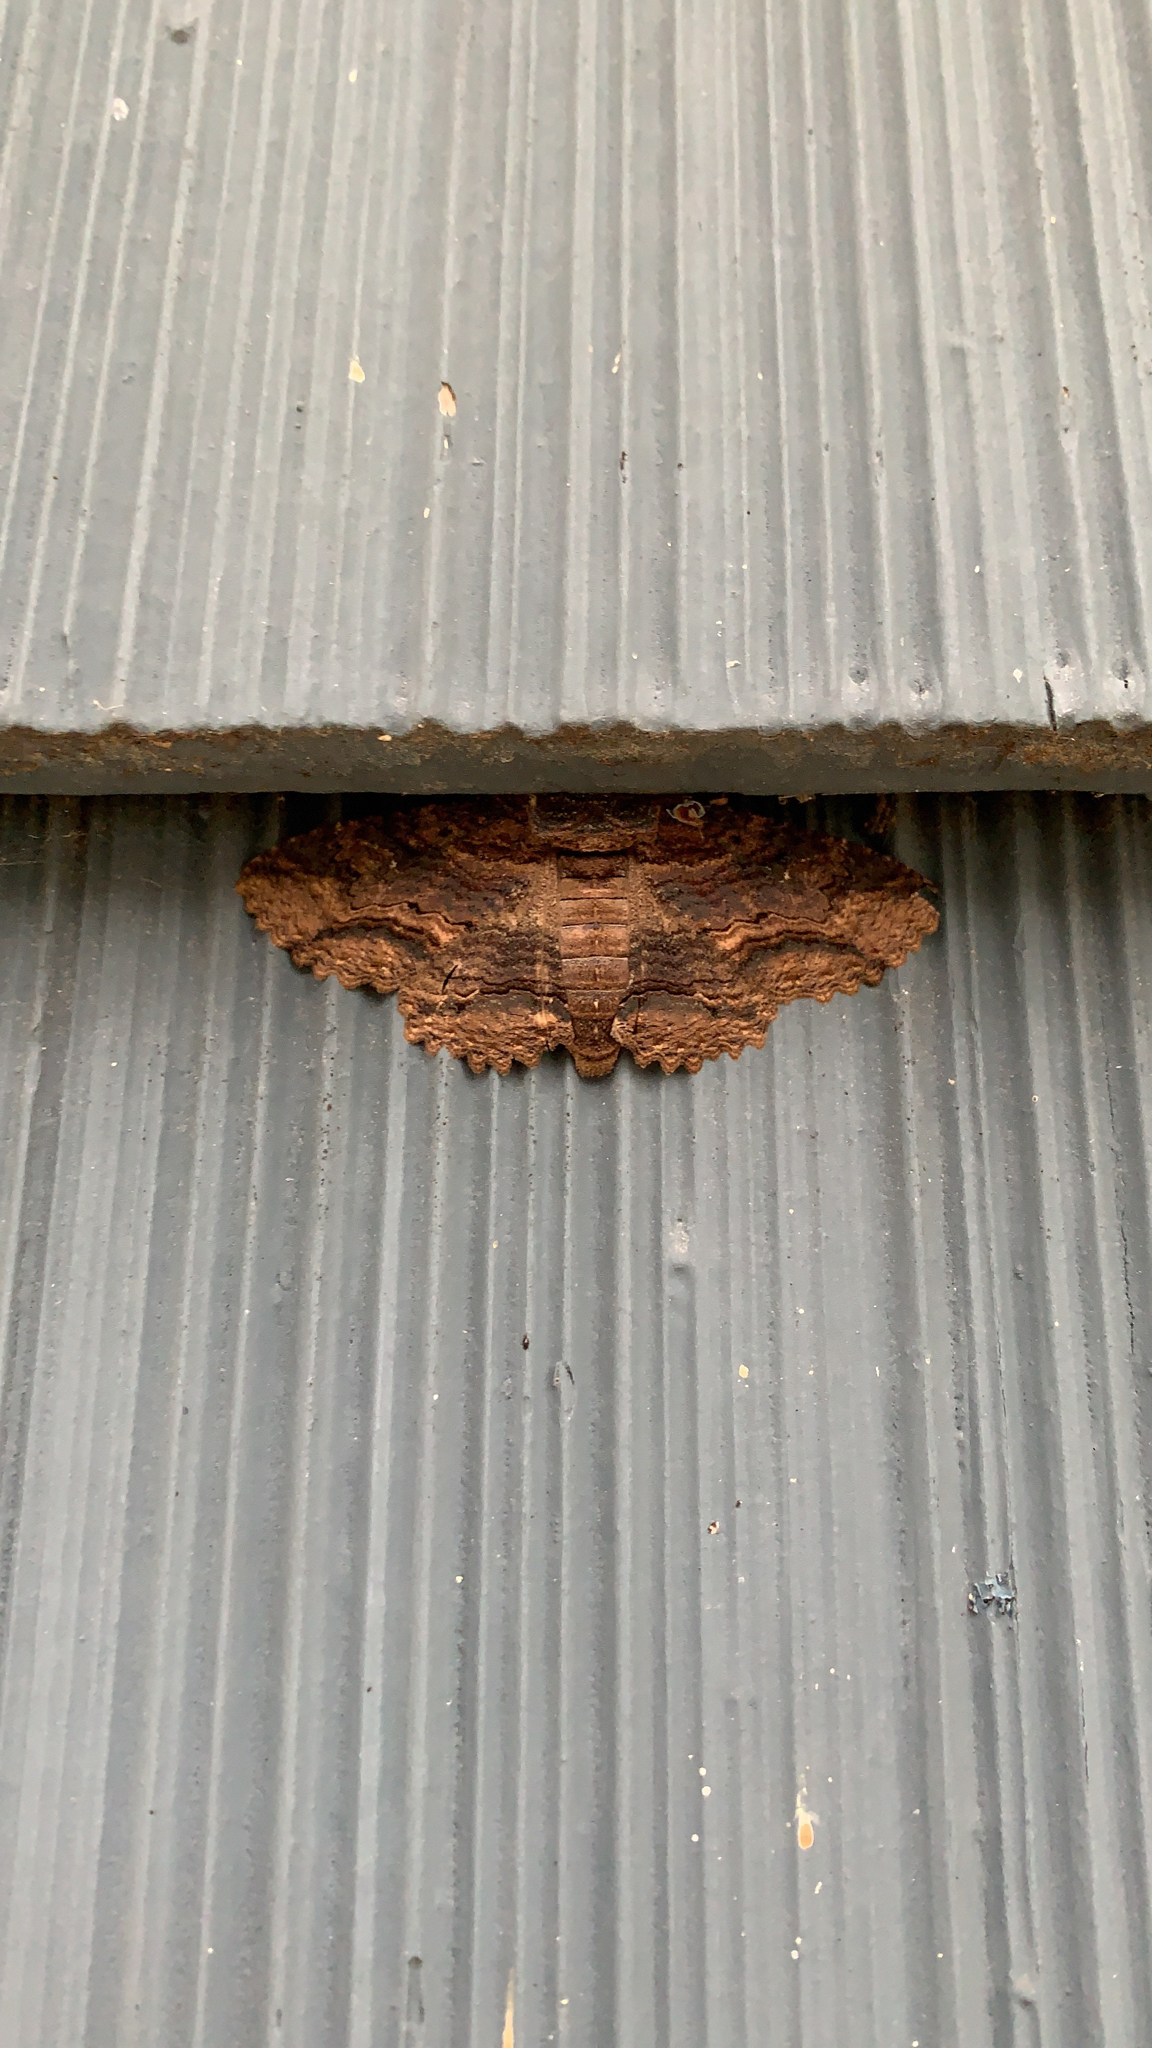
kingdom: Animalia
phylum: Arthropoda
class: Insecta
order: Lepidoptera
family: Erebidae
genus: Zale
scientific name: Zale lunata
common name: Lunate zale moth
